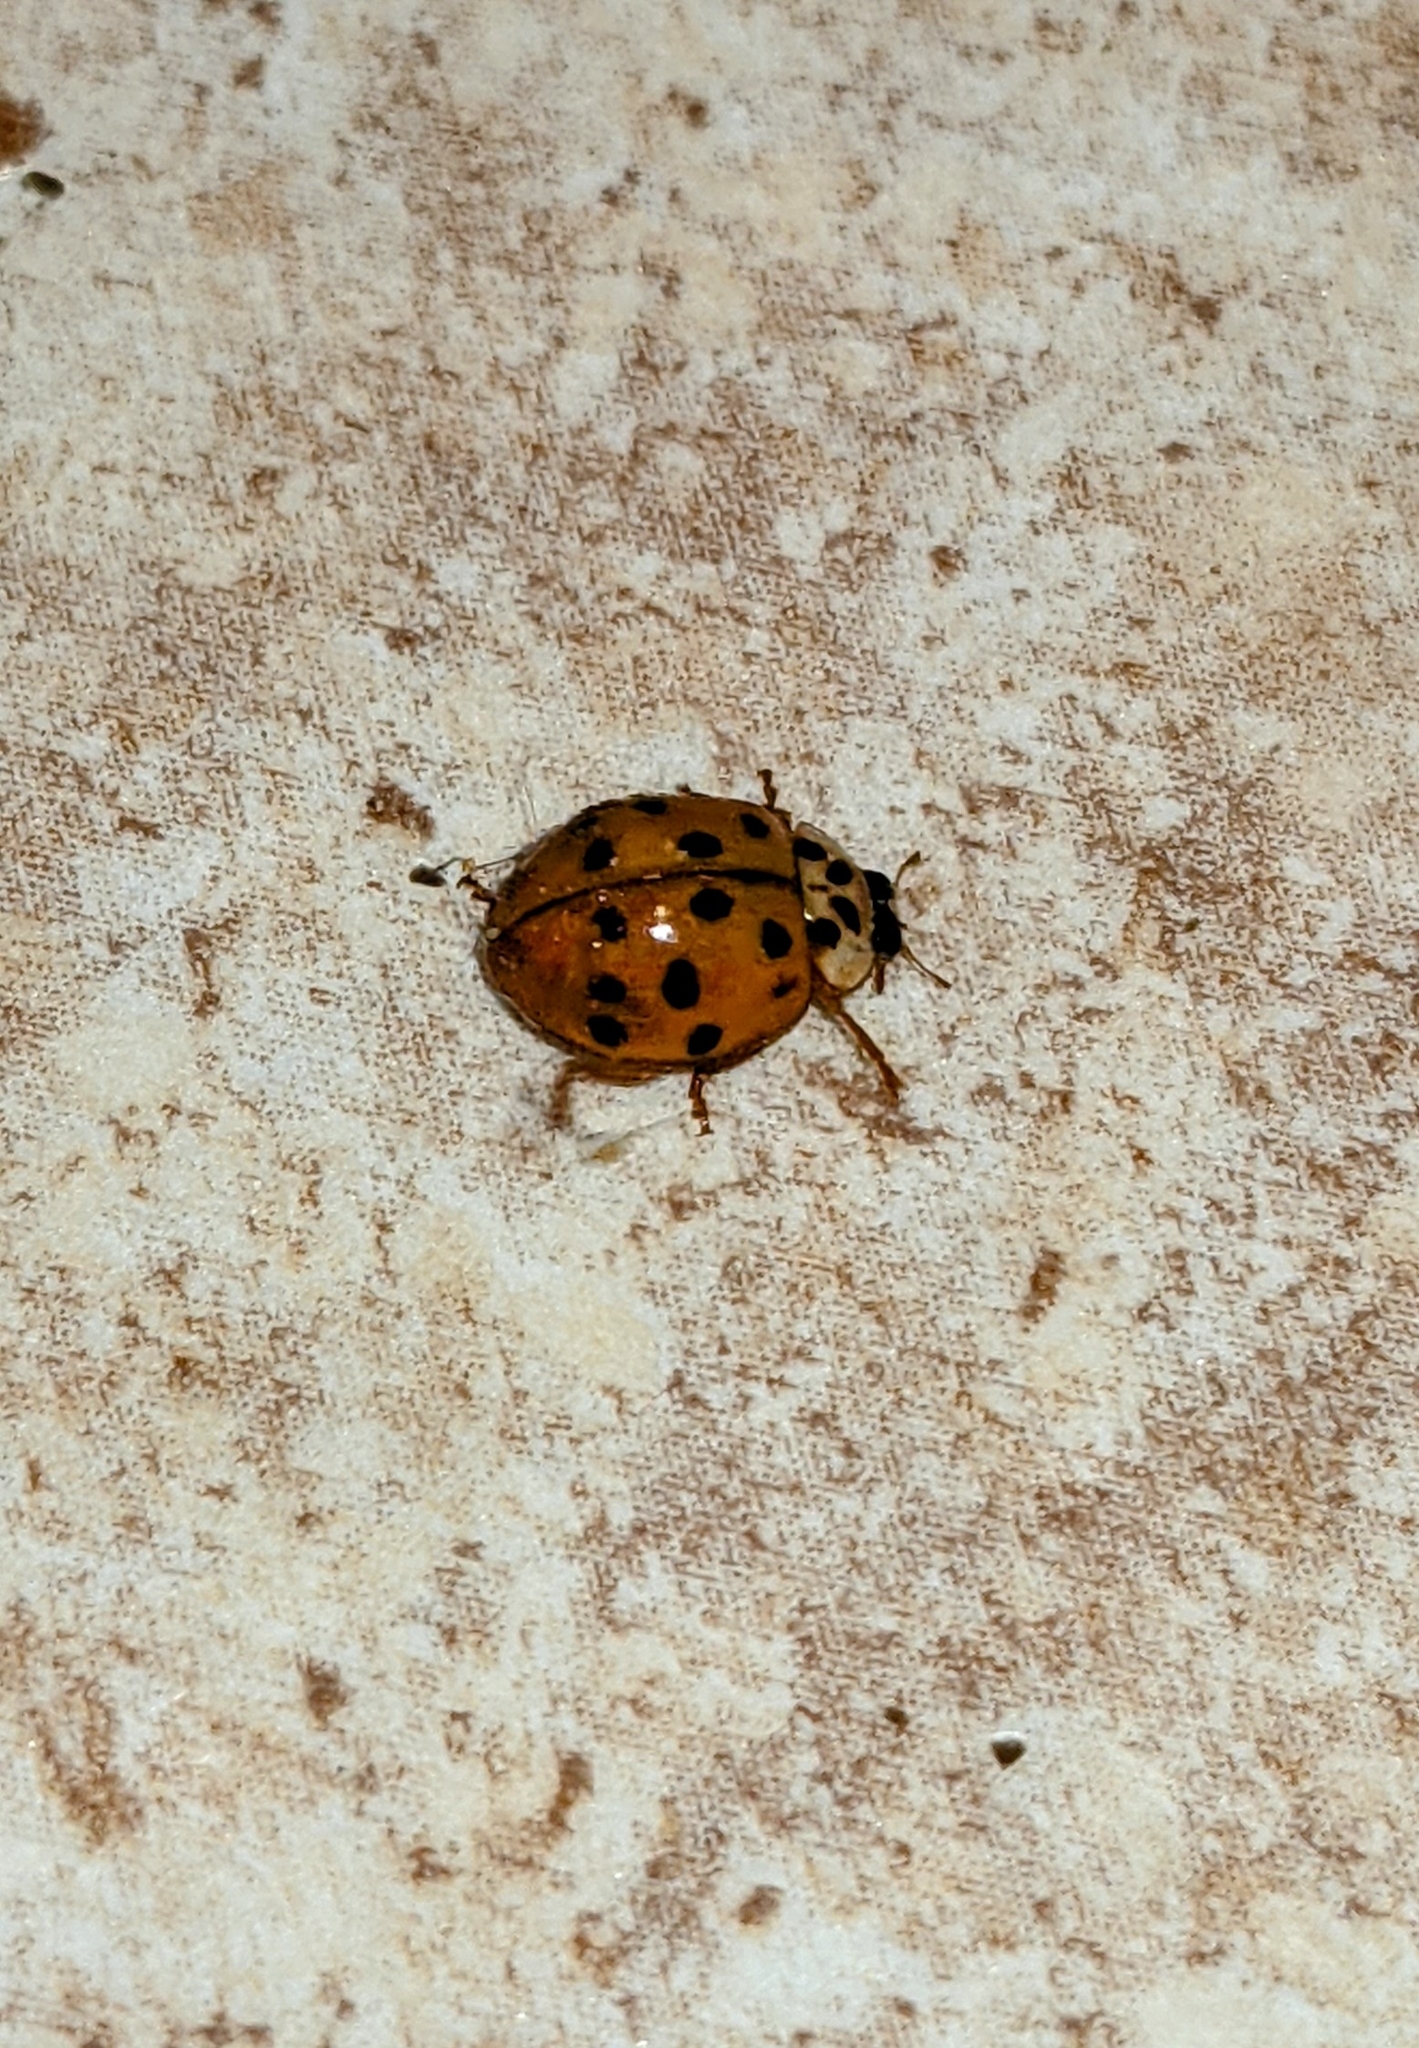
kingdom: Animalia
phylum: Arthropoda
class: Insecta
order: Coleoptera
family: Coccinellidae
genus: Harmonia
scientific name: Harmonia axyridis
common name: Harlequin ladybird
